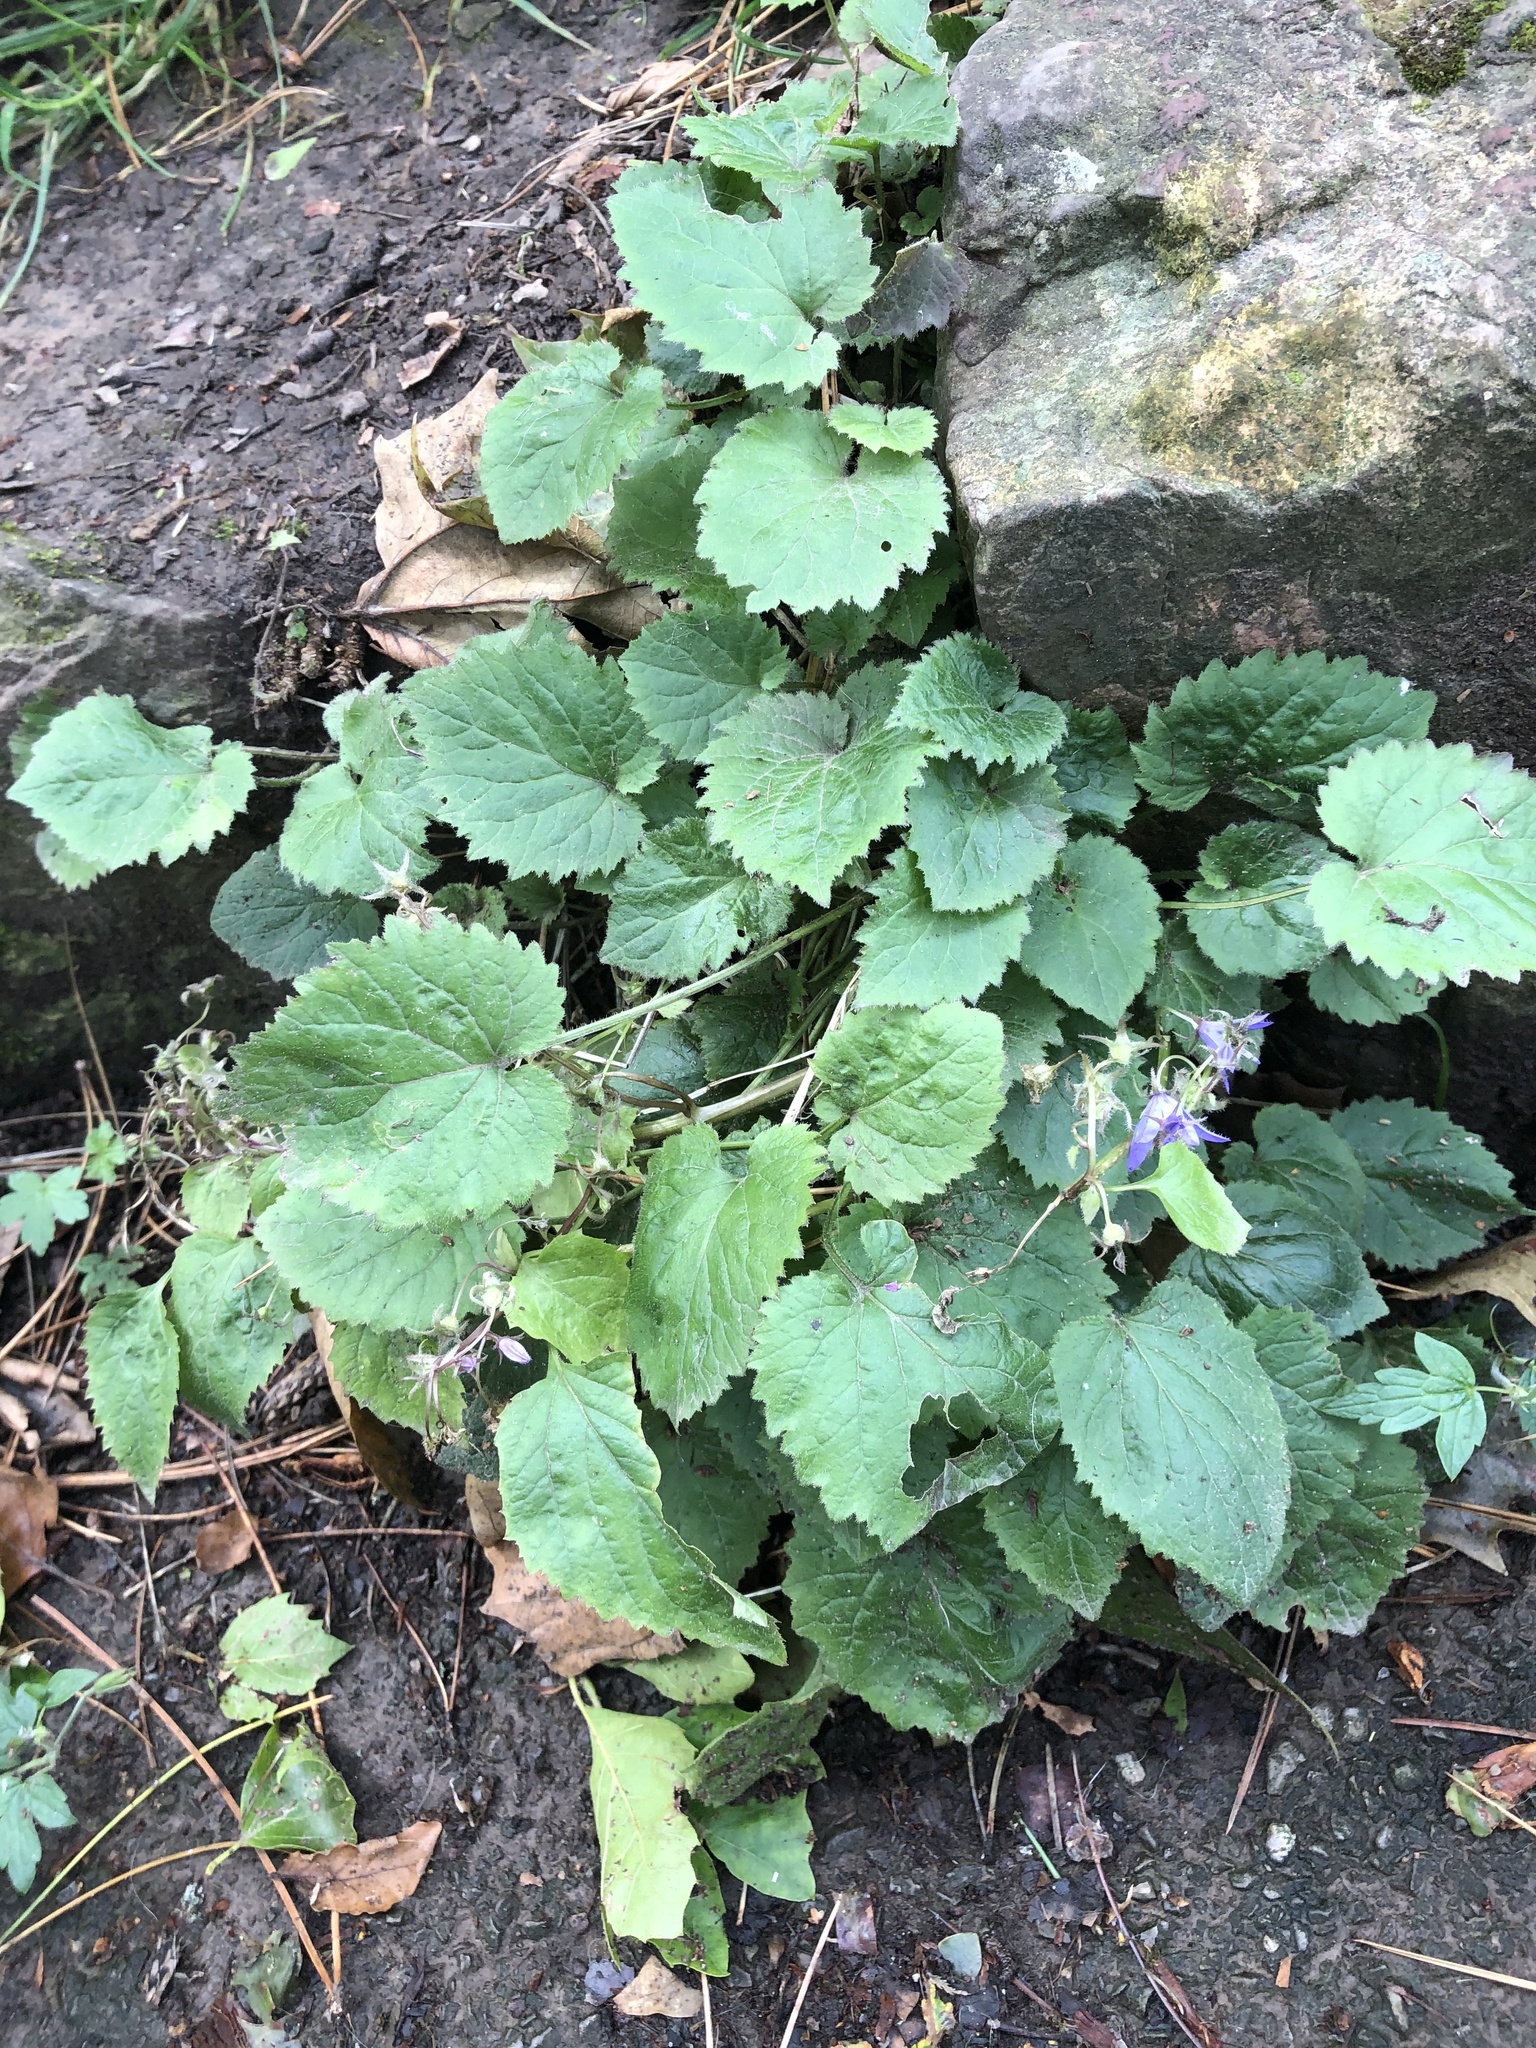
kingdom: Plantae
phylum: Tracheophyta
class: Magnoliopsida
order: Asterales
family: Campanulaceae
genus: Campanula
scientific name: Campanula poscharskyana
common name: Trailing bellflower
